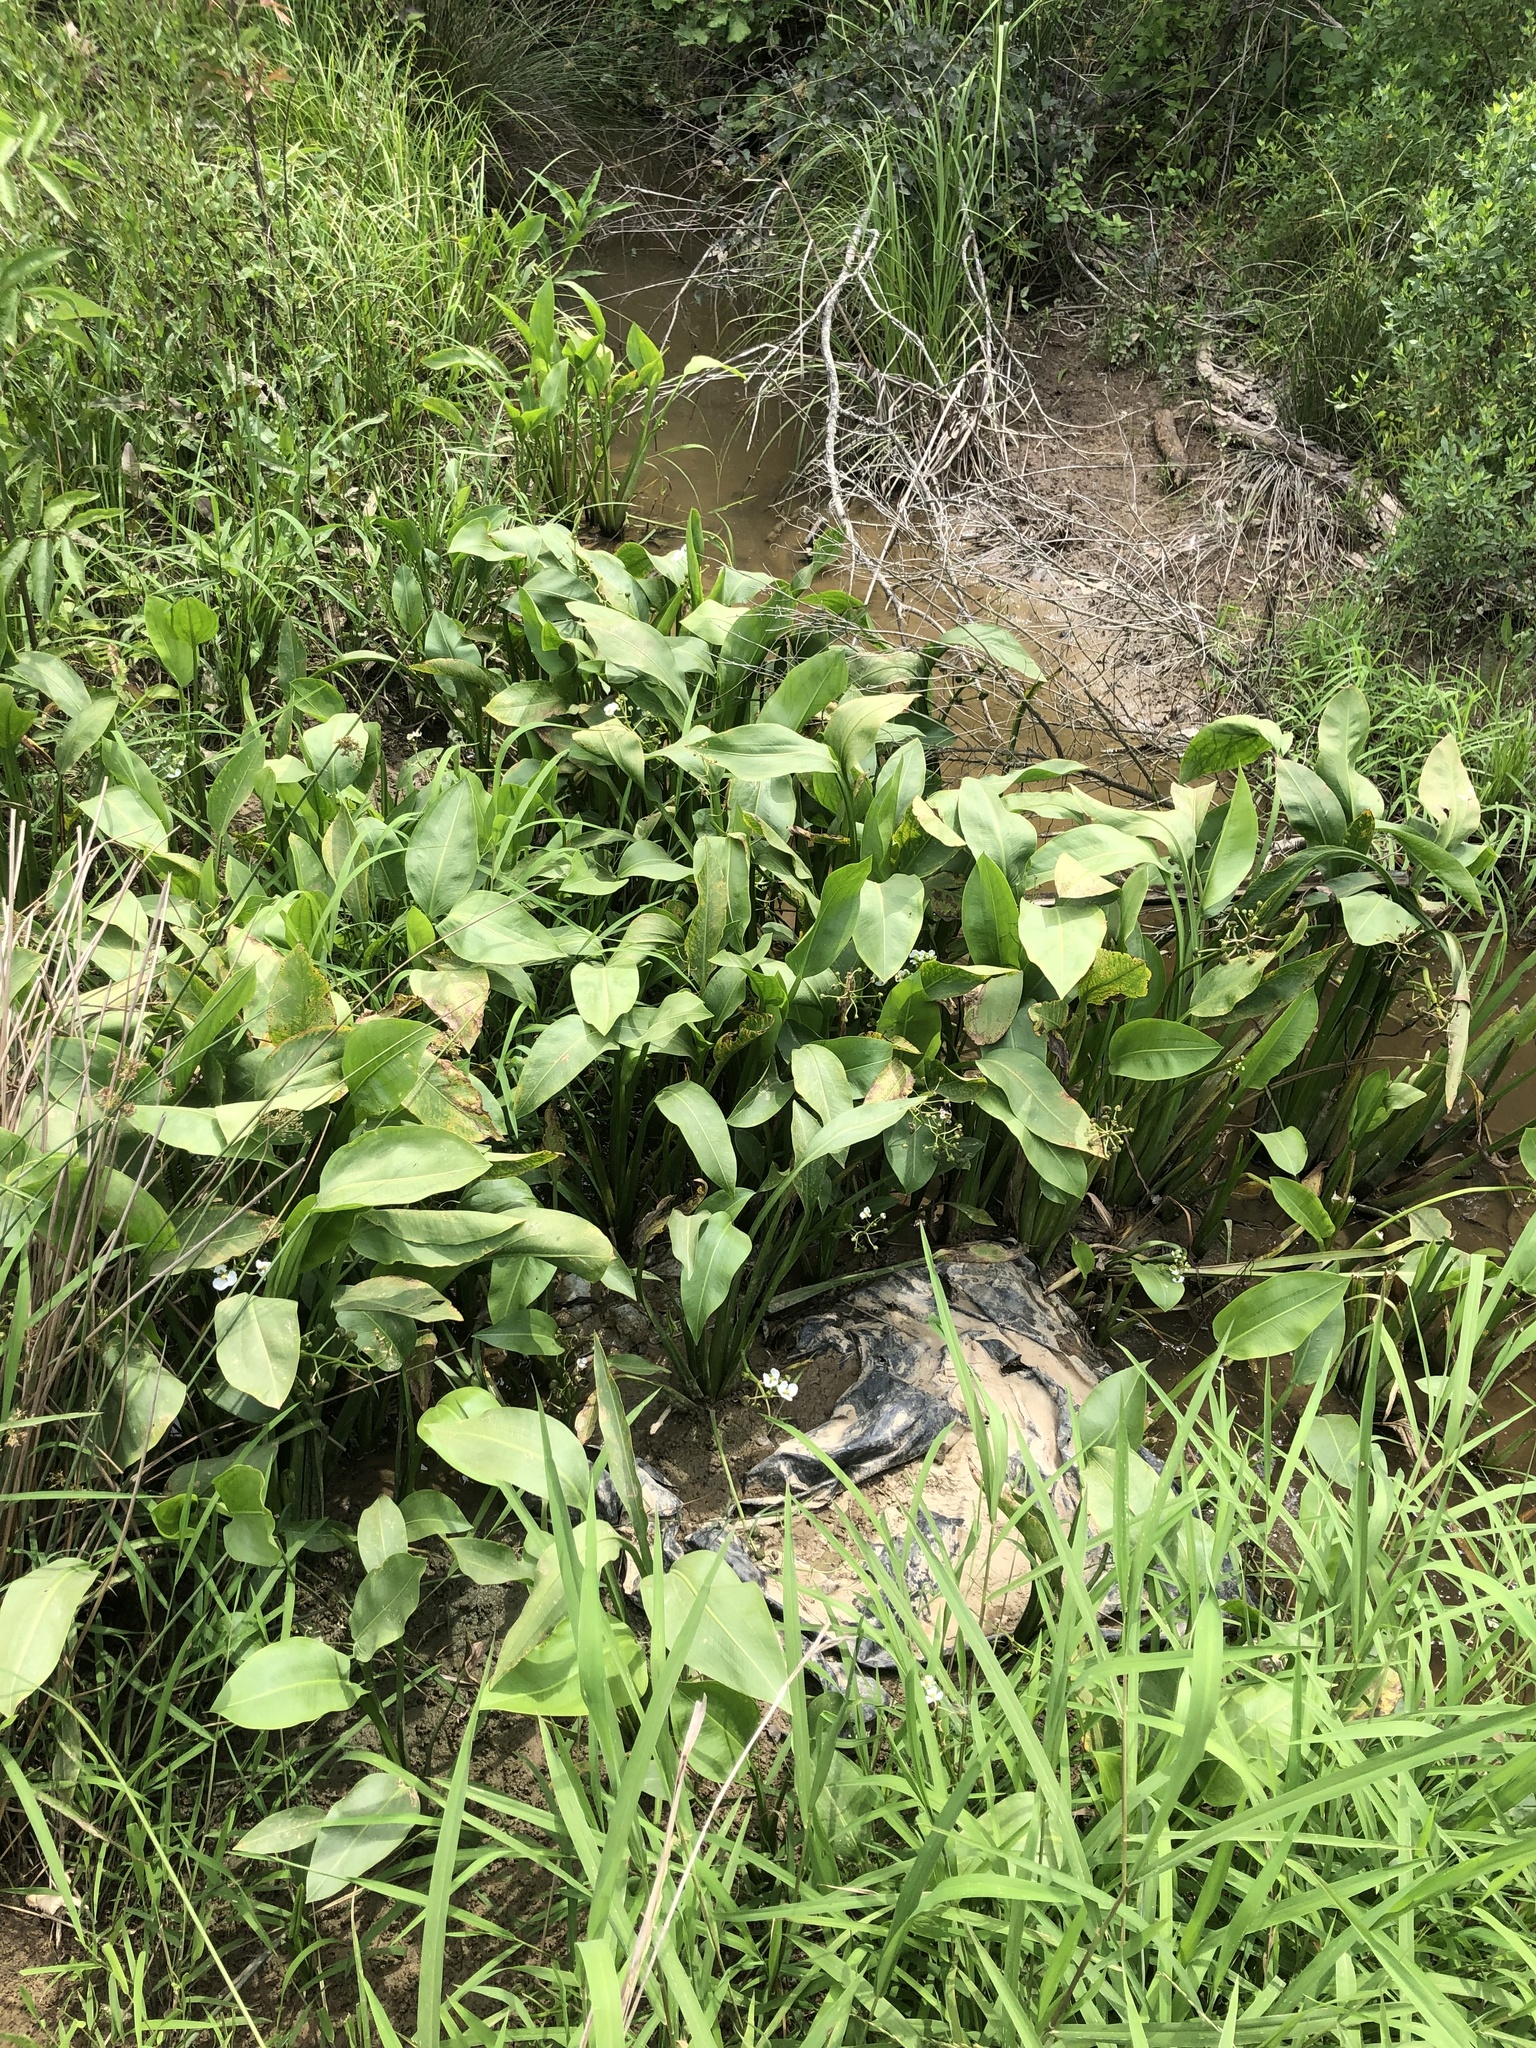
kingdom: Plantae
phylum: Tracheophyta
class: Liliopsida
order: Alismatales
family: Alismataceae
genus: Sagittaria
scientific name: Sagittaria platyphylla
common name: Broad-leaf arrowhead
